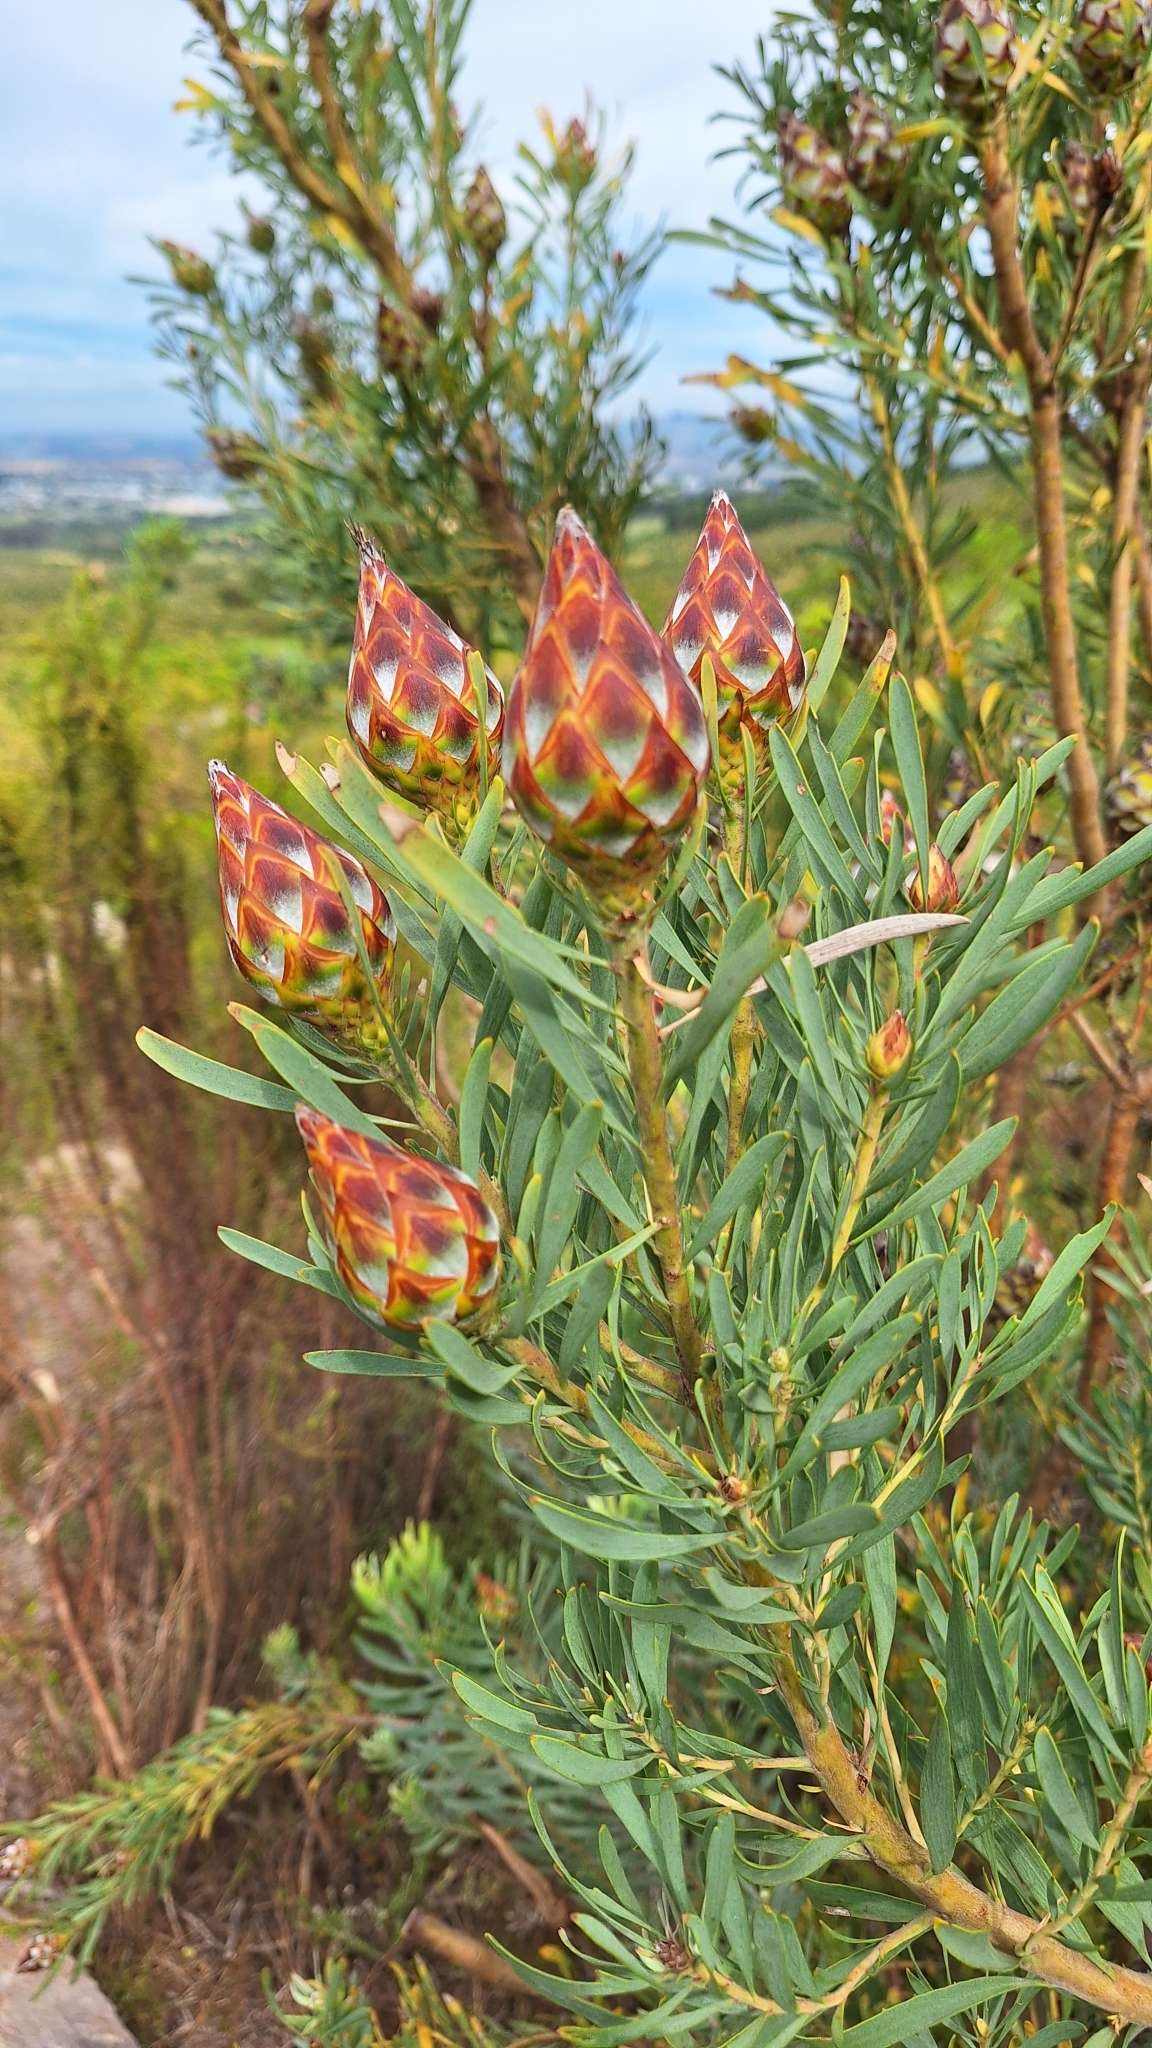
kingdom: Plantae
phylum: Tracheophyta
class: Magnoliopsida
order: Proteales
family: Proteaceae
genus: Leucadendron
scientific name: Leucadendron rubrum
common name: Spinning top
